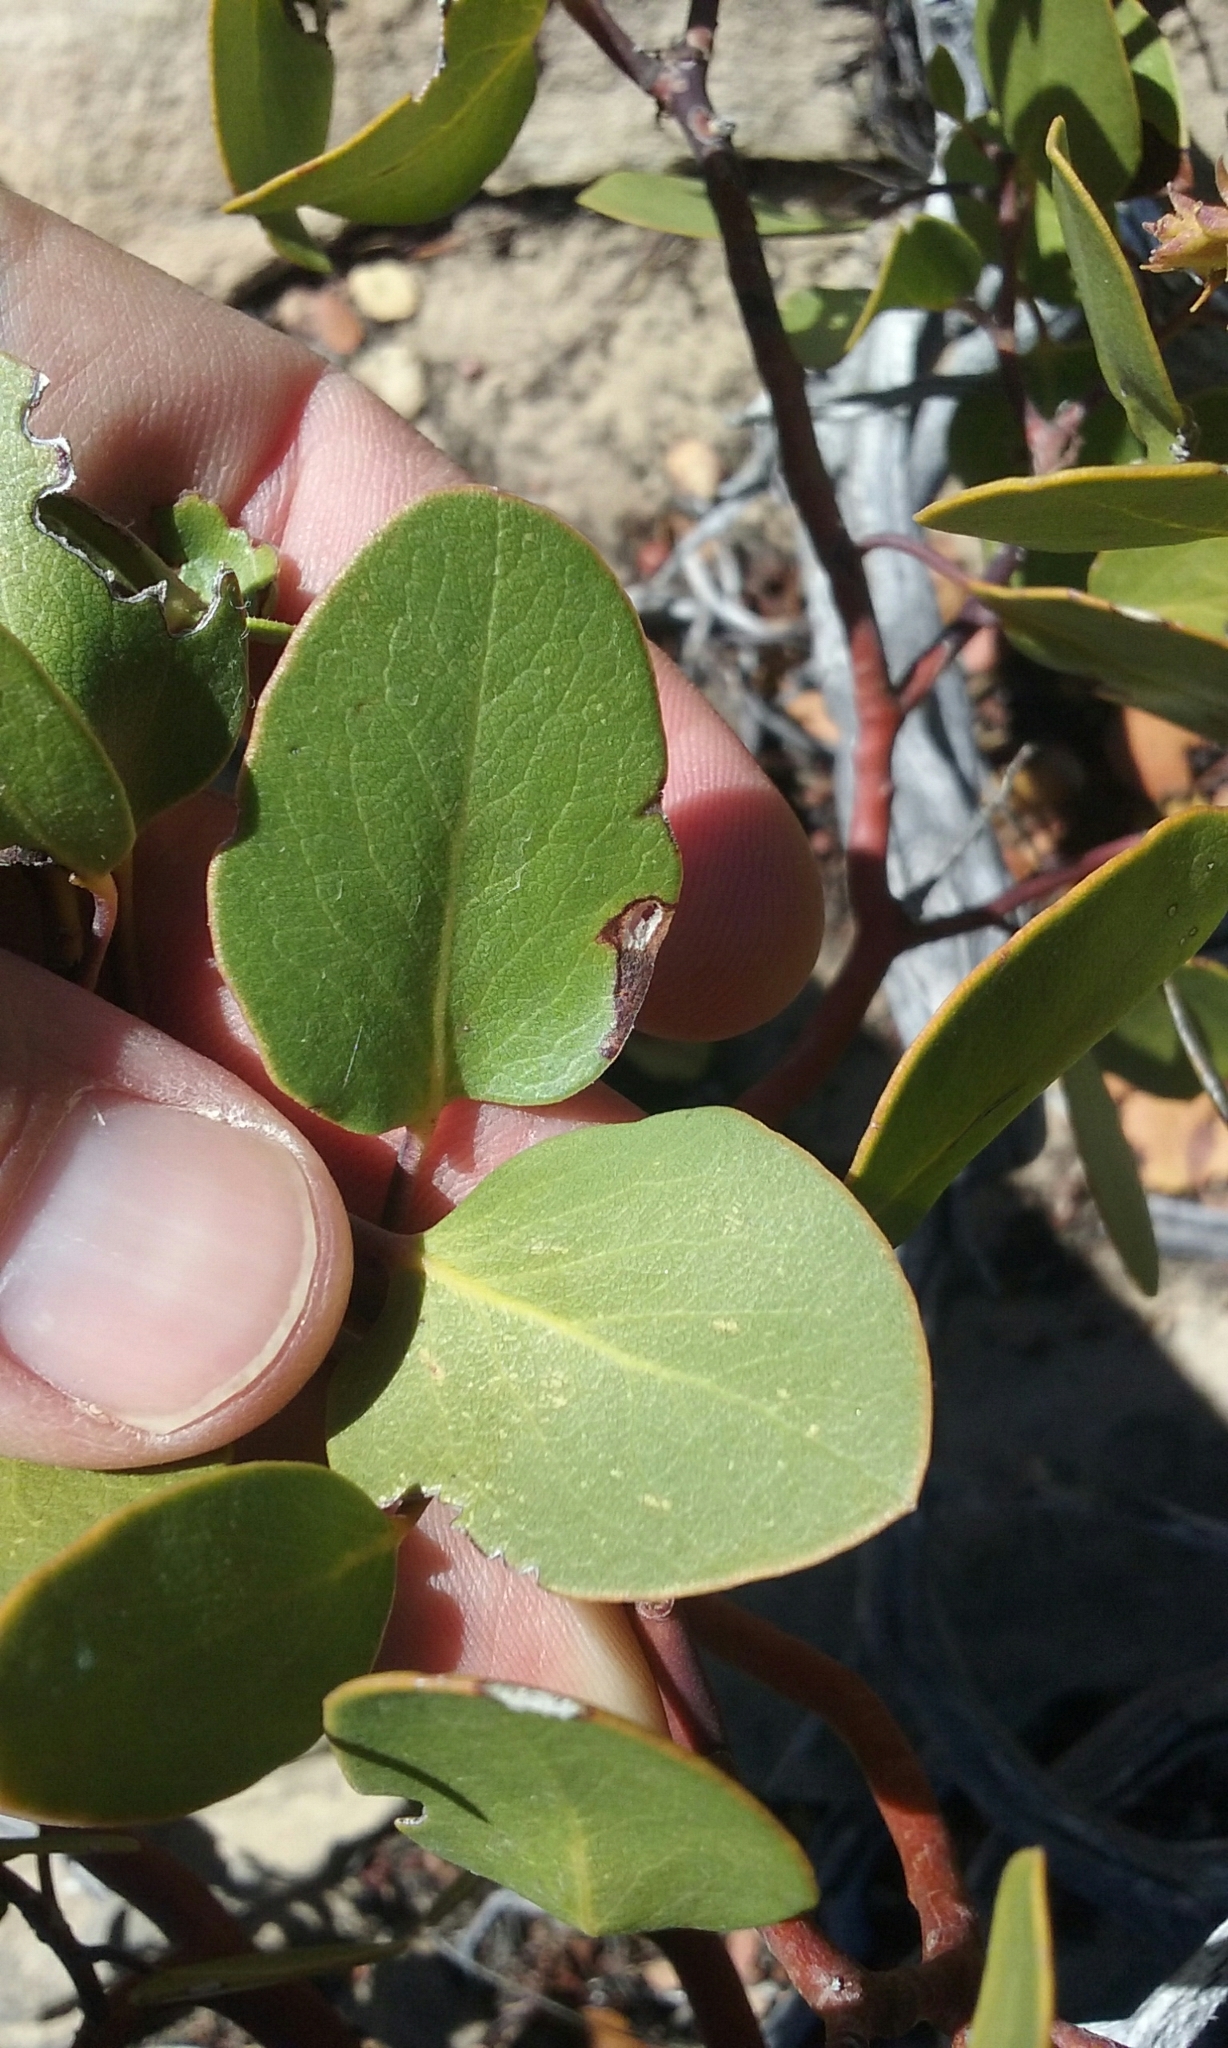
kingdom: Plantae
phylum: Tracheophyta
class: Magnoliopsida
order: Ericales
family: Ericaceae
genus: Arctostaphylos
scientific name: Arctostaphylos patula
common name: Green-leaf manzanita
